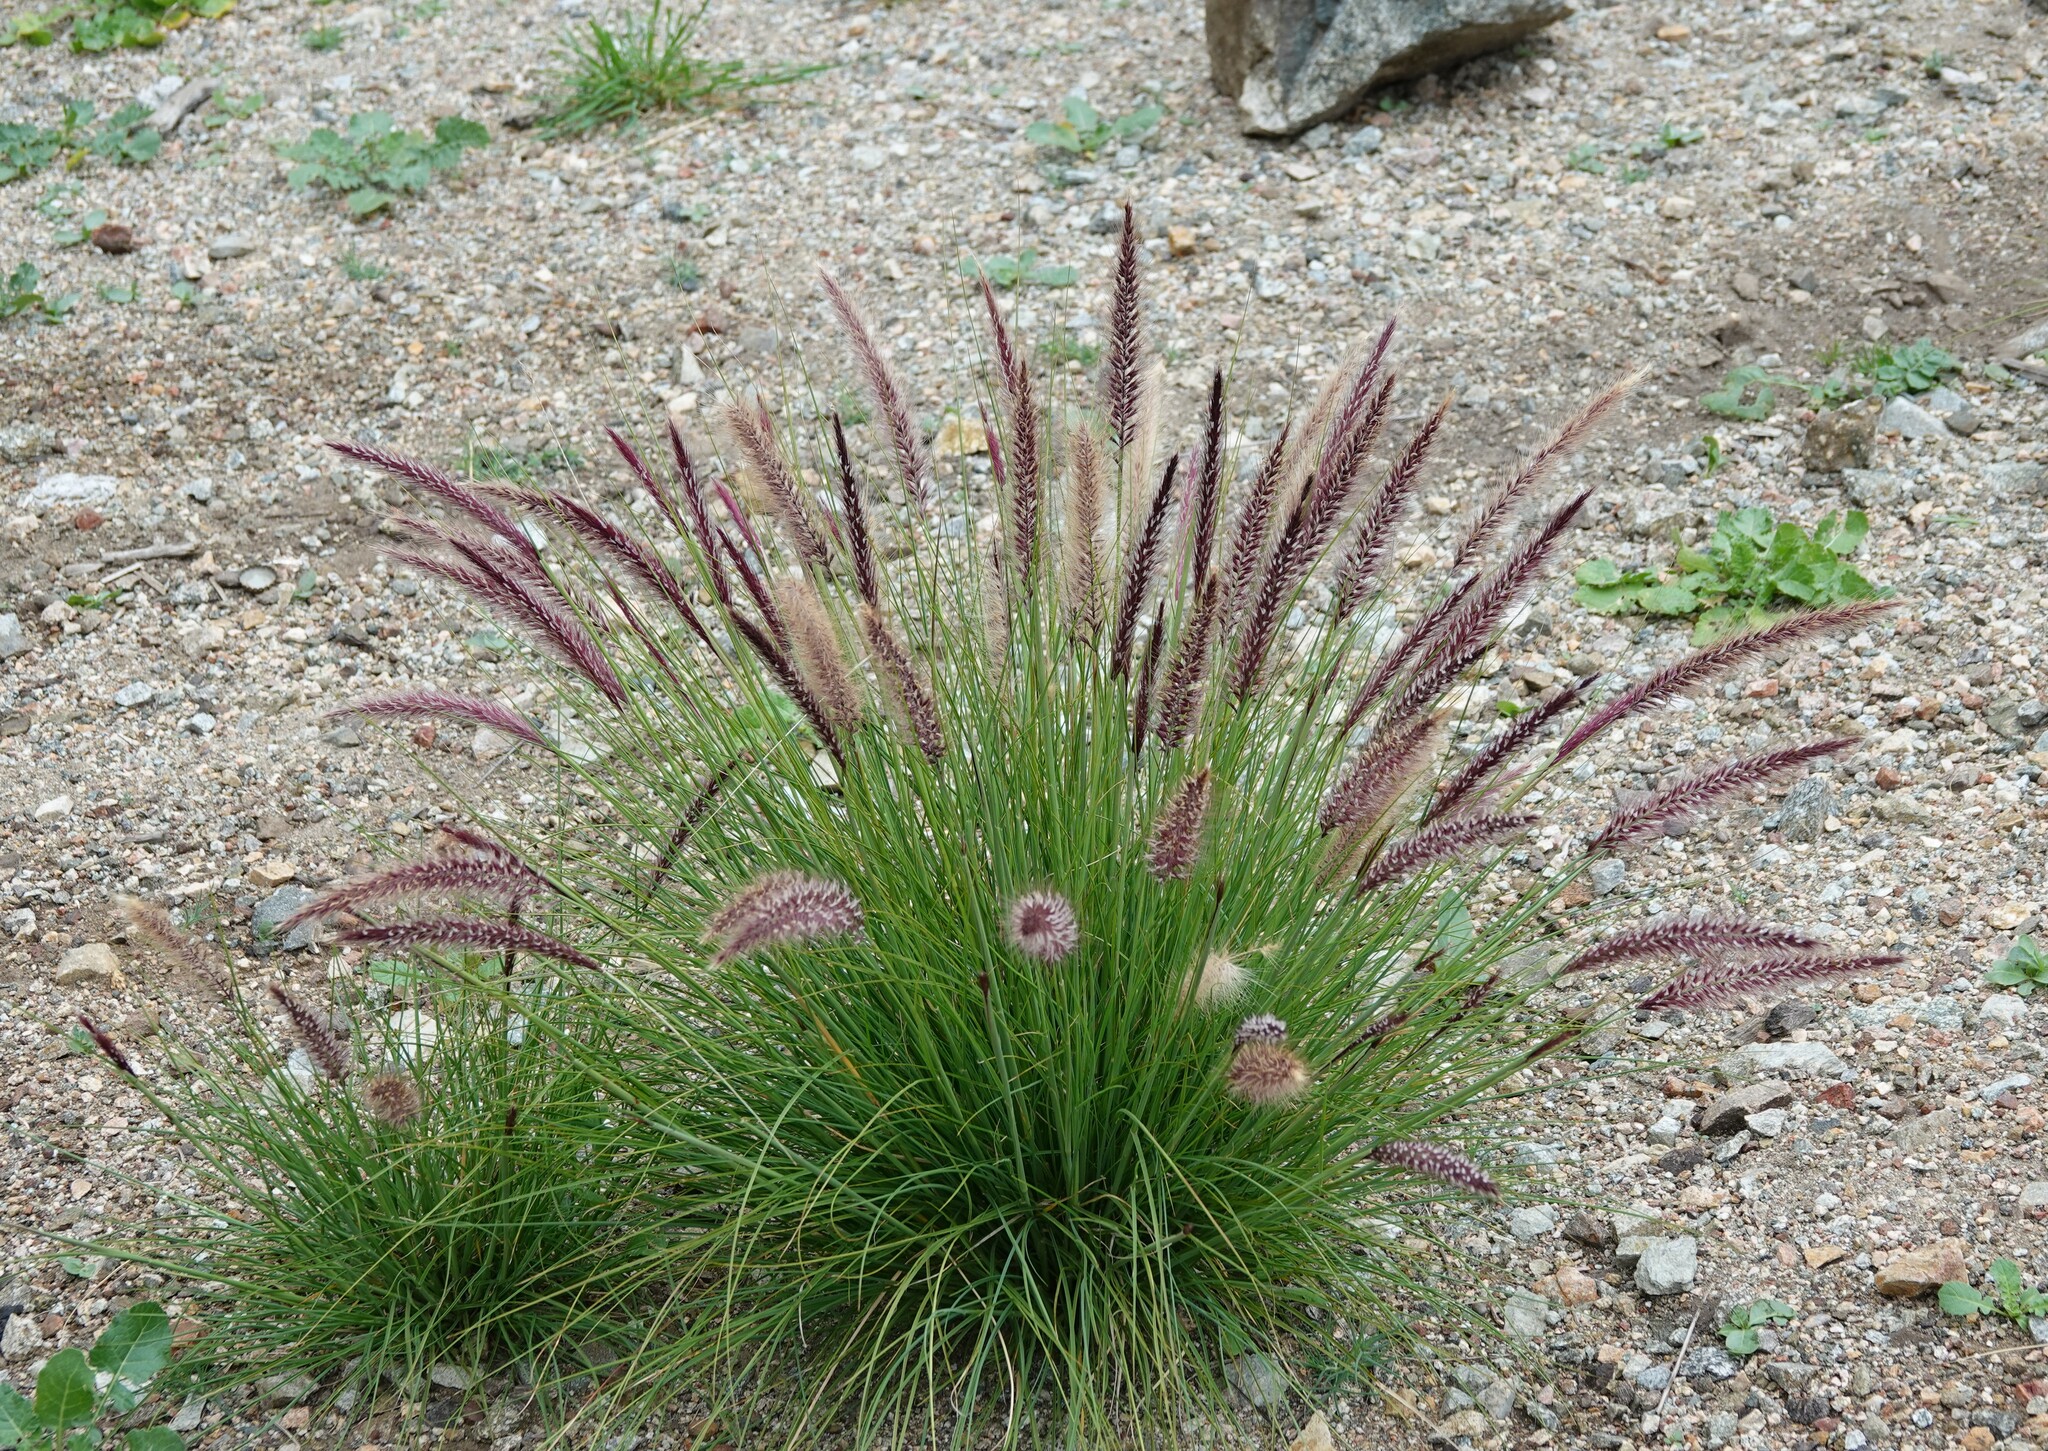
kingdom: Plantae
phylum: Tracheophyta
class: Liliopsida
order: Poales
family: Poaceae
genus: Cenchrus
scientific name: Cenchrus setaceus
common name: Crimson fountaingrass
